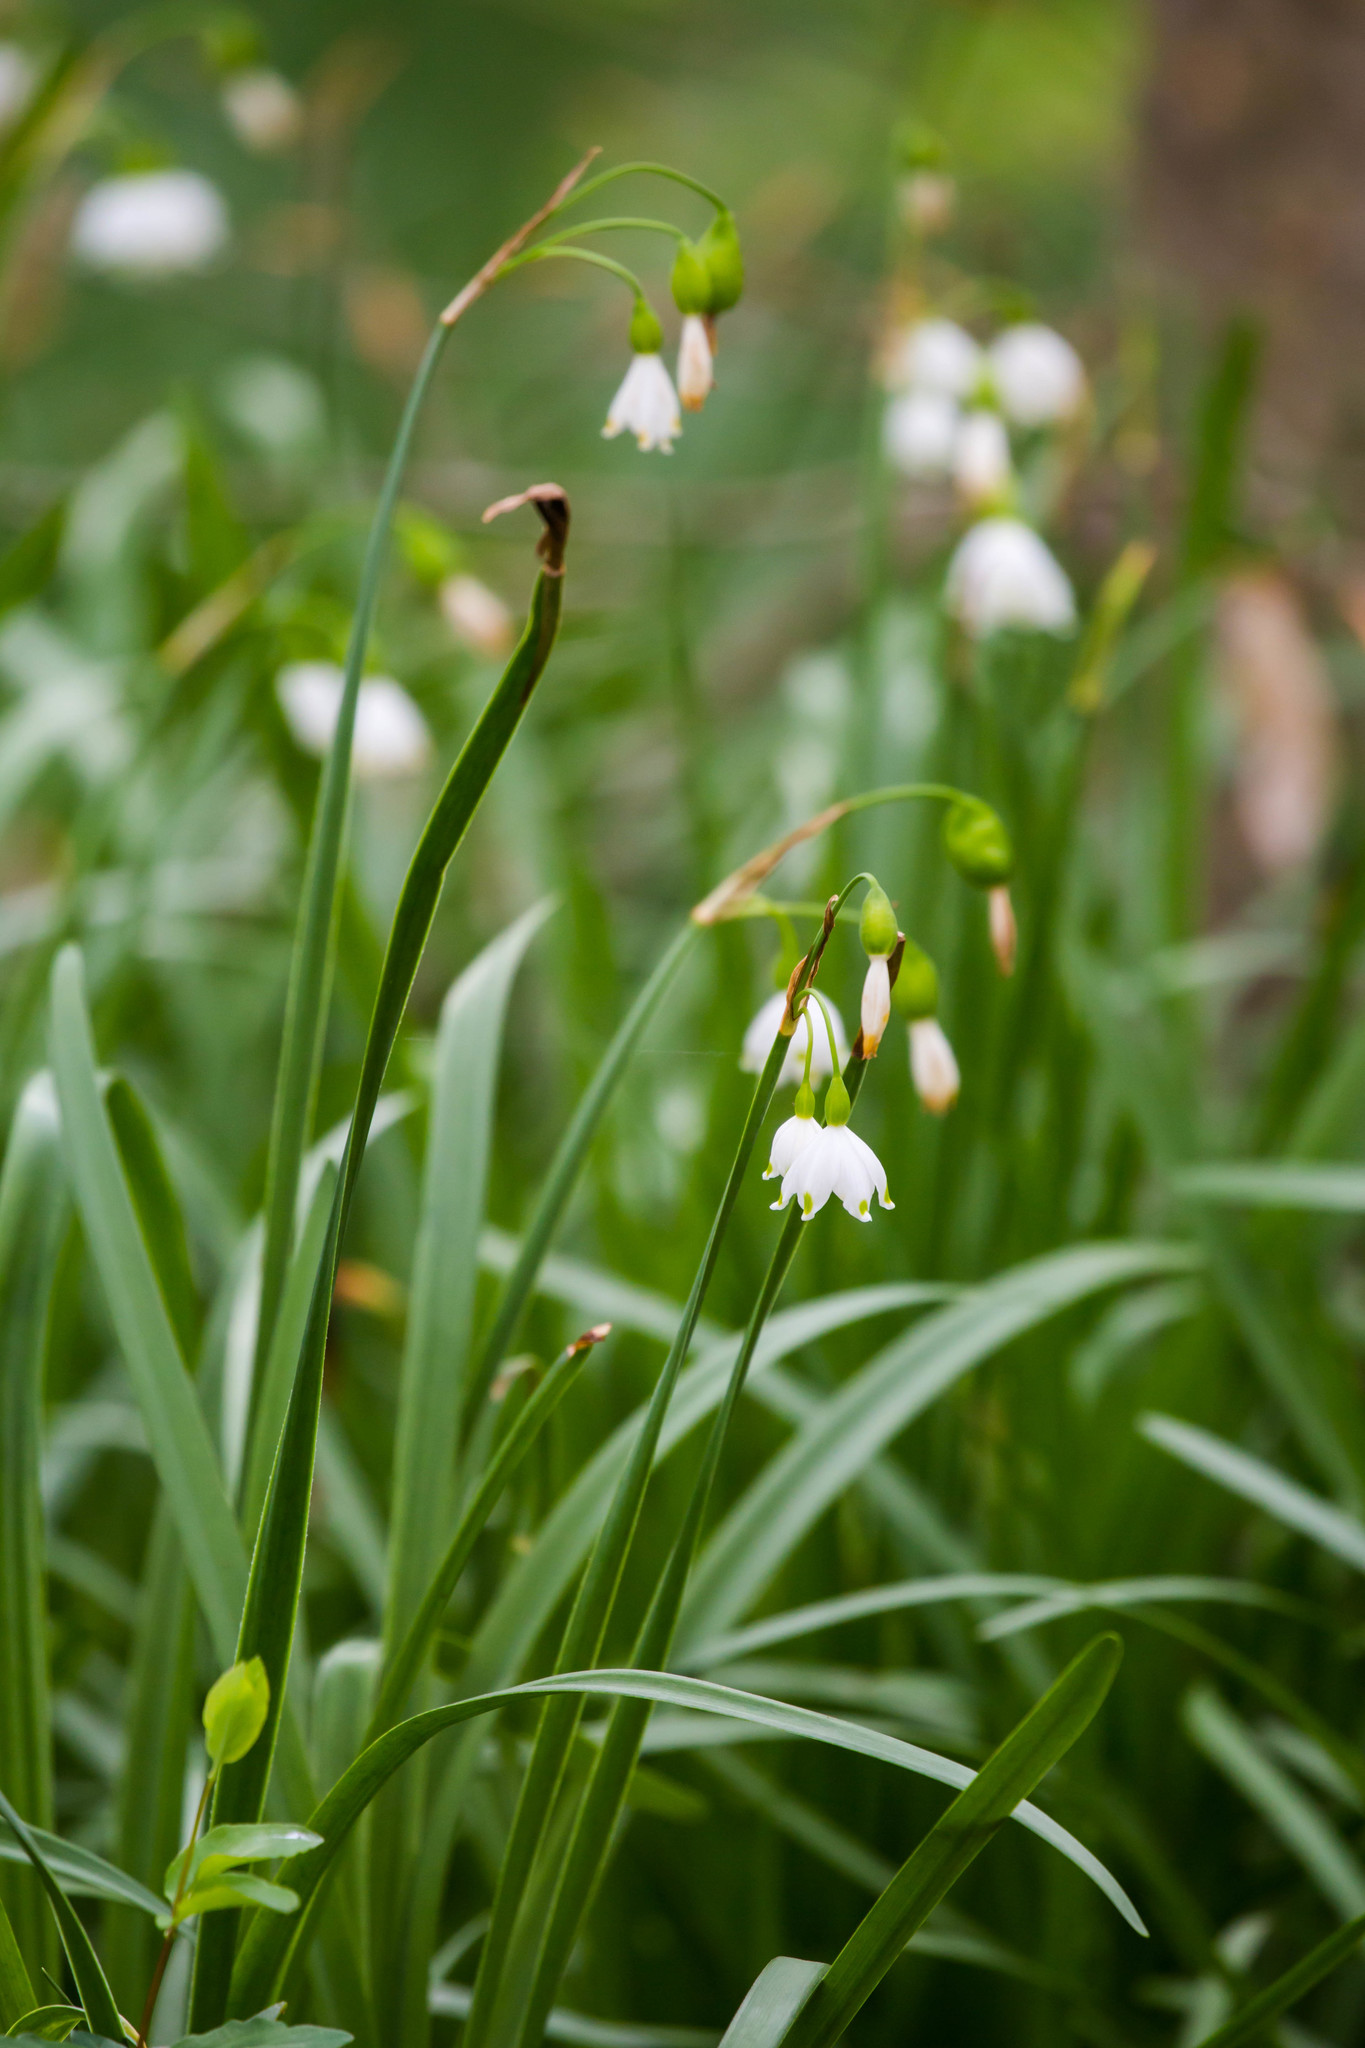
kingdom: Plantae
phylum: Tracheophyta
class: Liliopsida
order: Asparagales
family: Amaryllidaceae
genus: Leucojum
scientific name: Leucojum aestivum
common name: Summer snowflake
